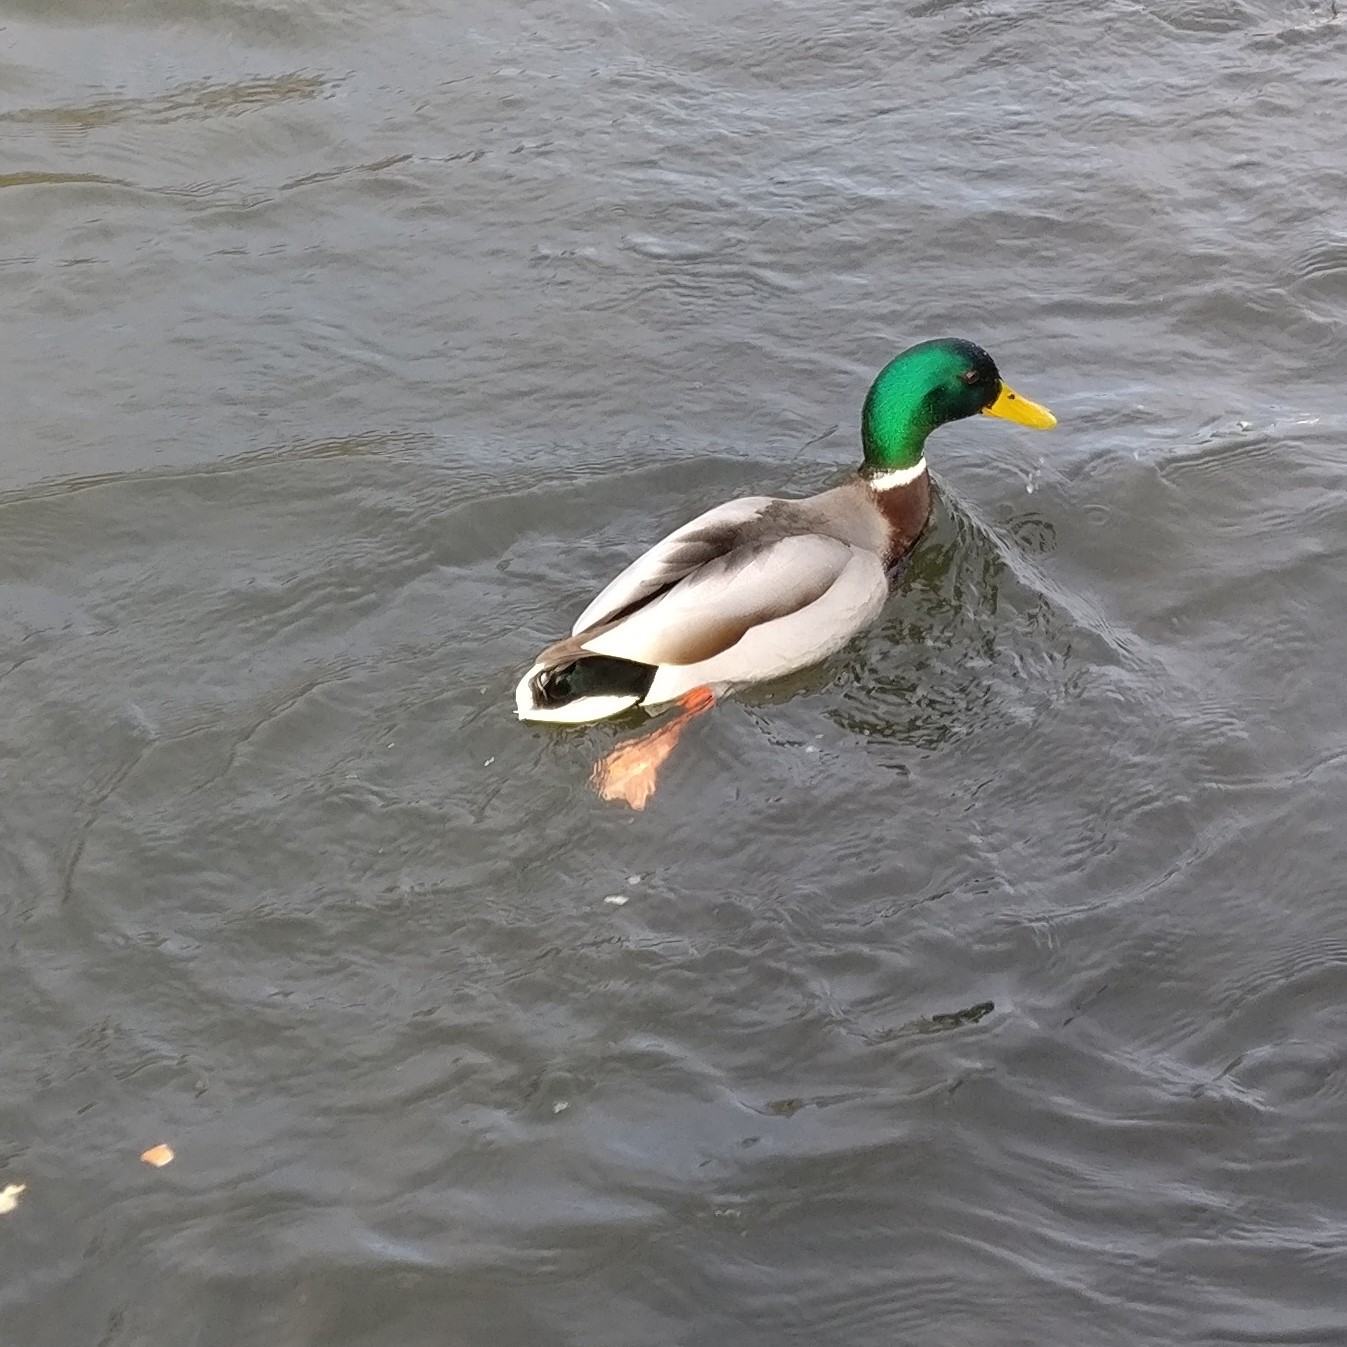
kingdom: Animalia
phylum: Chordata
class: Aves
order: Anseriformes
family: Anatidae
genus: Anas
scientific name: Anas platyrhynchos
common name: Mallard
